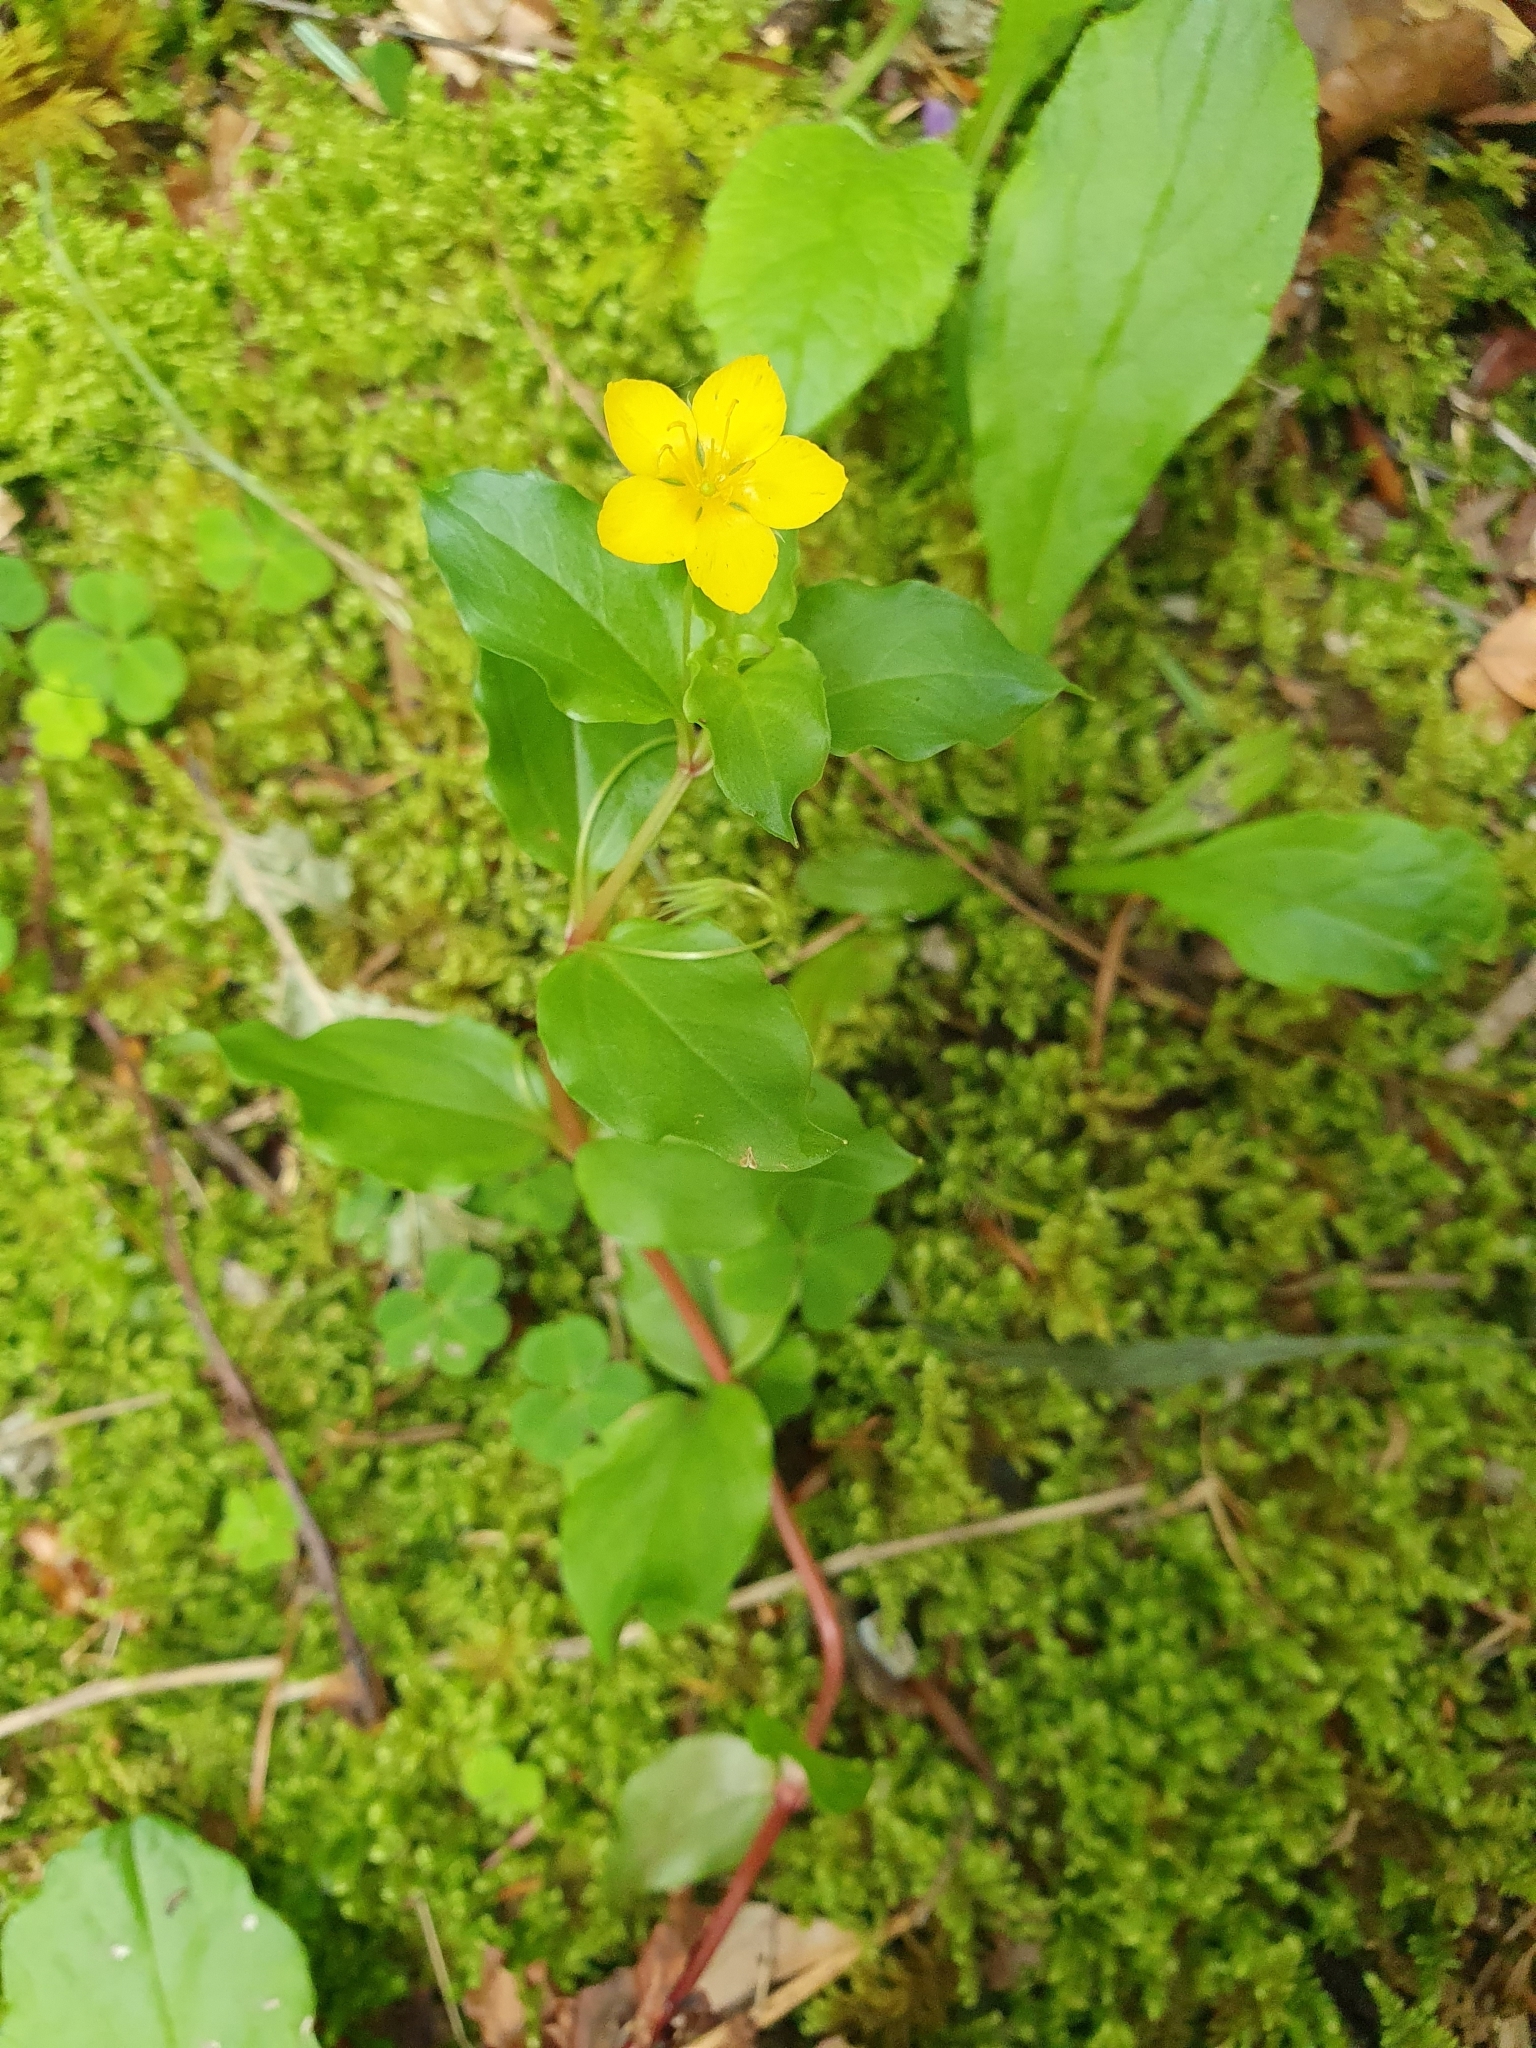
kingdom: Plantae
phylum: Tracheophyta
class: Magnoliopsida
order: Ericales
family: Primulaceae
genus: Lysimachia
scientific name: Lysimachia nemorum
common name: Yellow pimpernel
